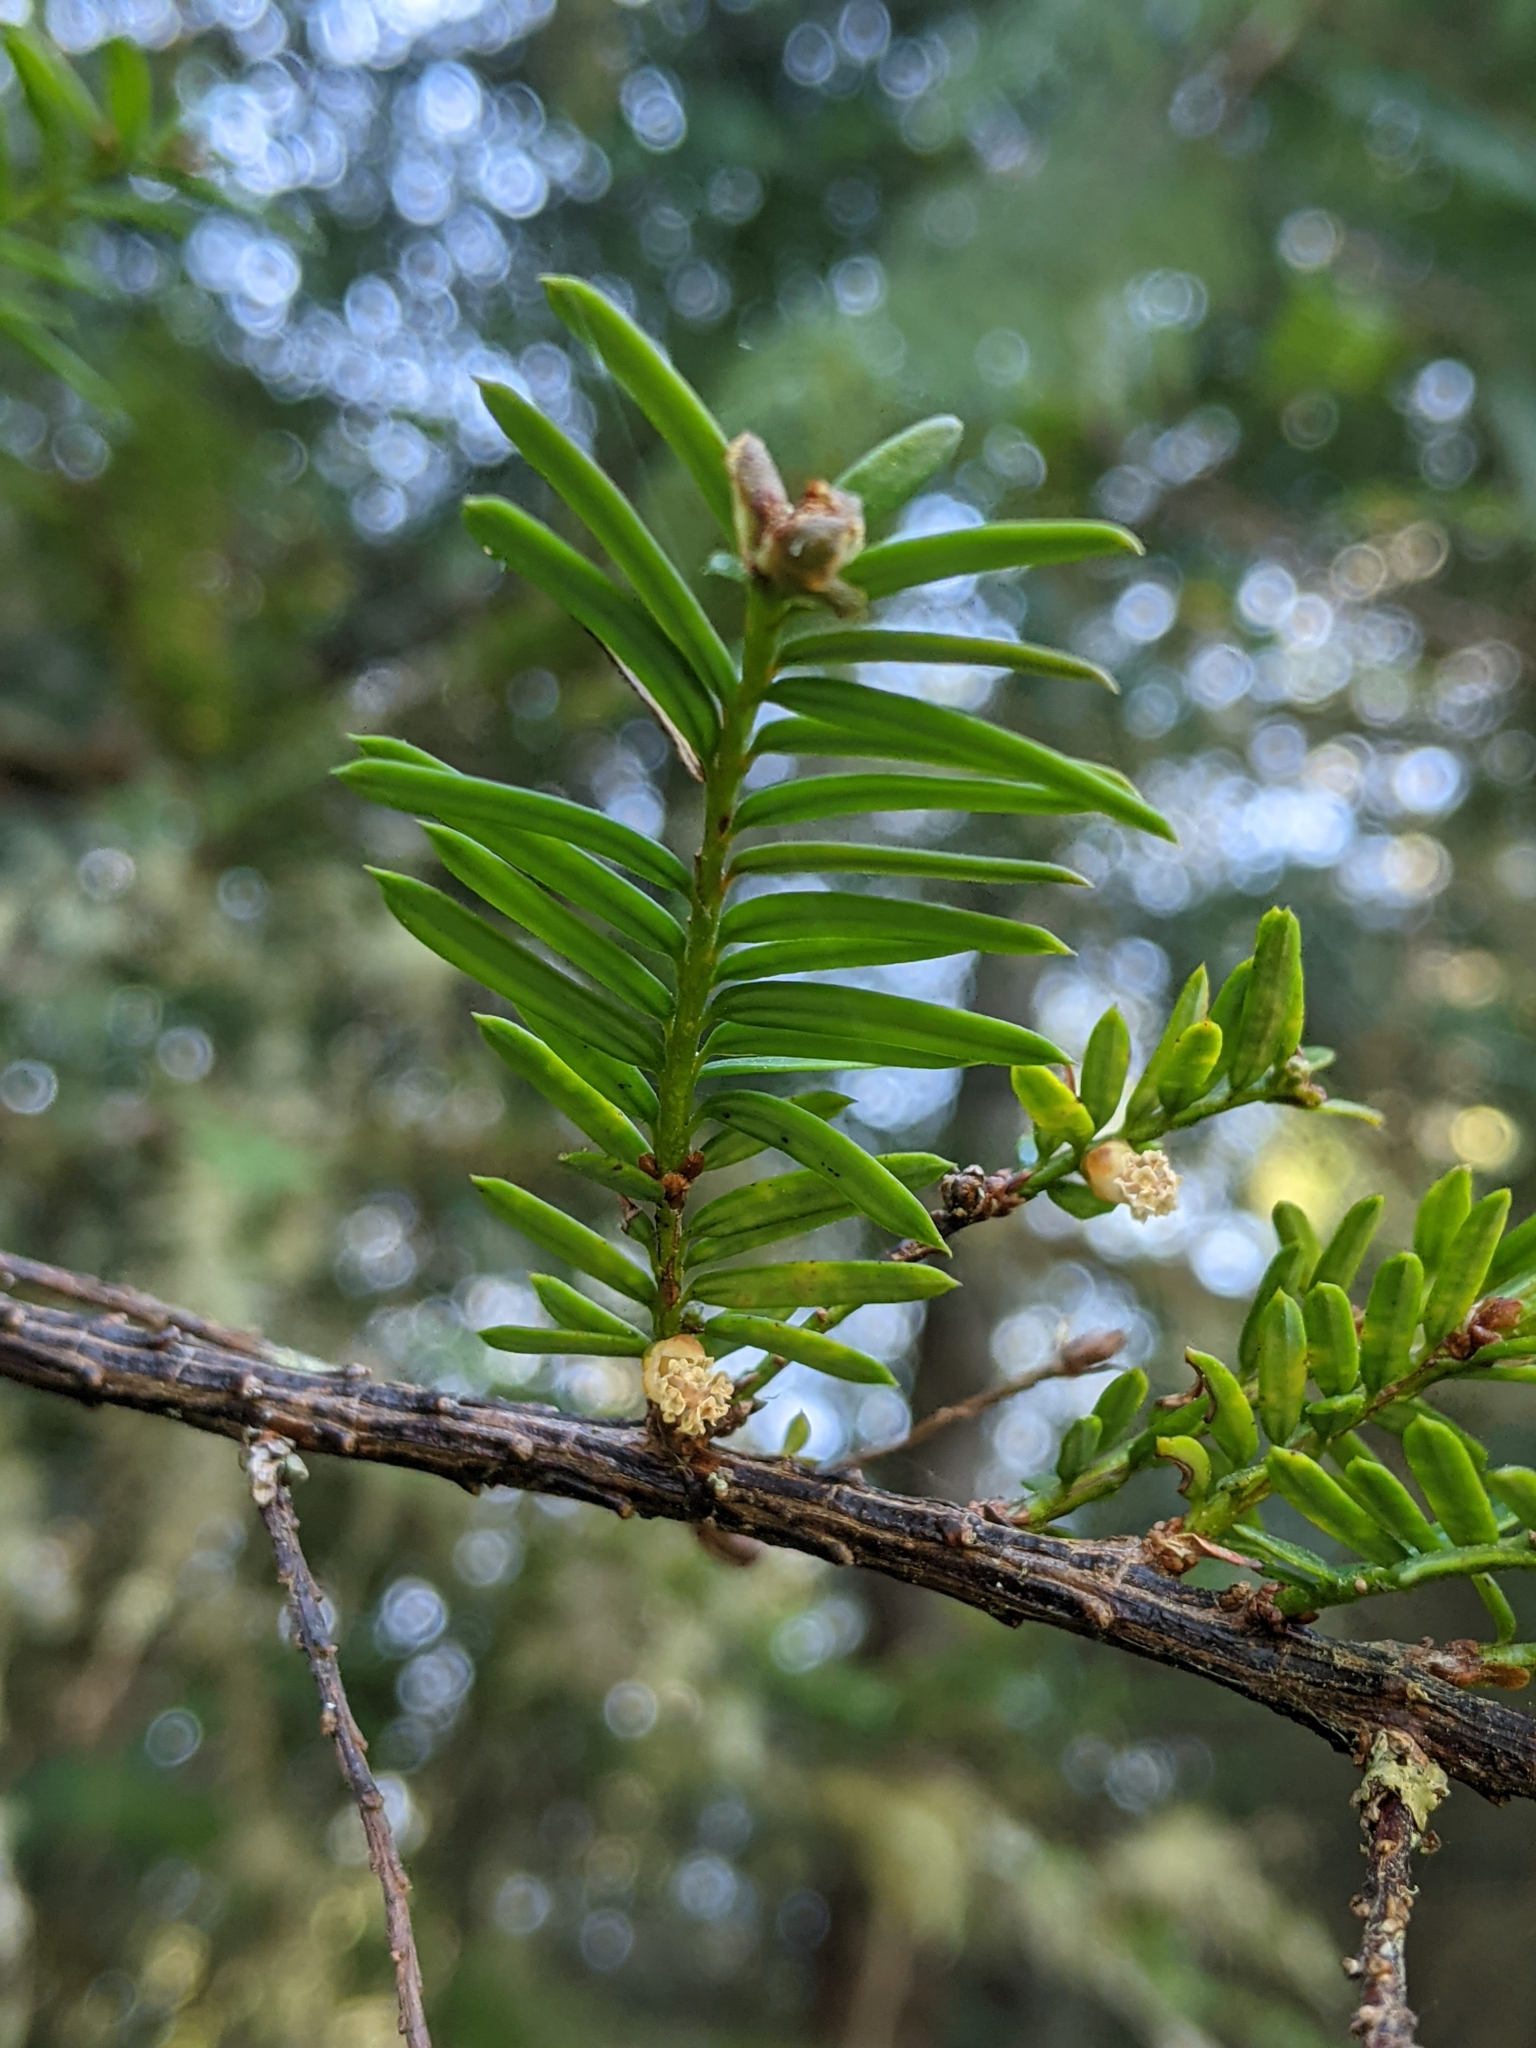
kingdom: Plantae
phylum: Tracheophyta
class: Pinopsida
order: Pinales
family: Taxaceae
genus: Taxus
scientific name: Taxus brevifolia
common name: Pacific yew
